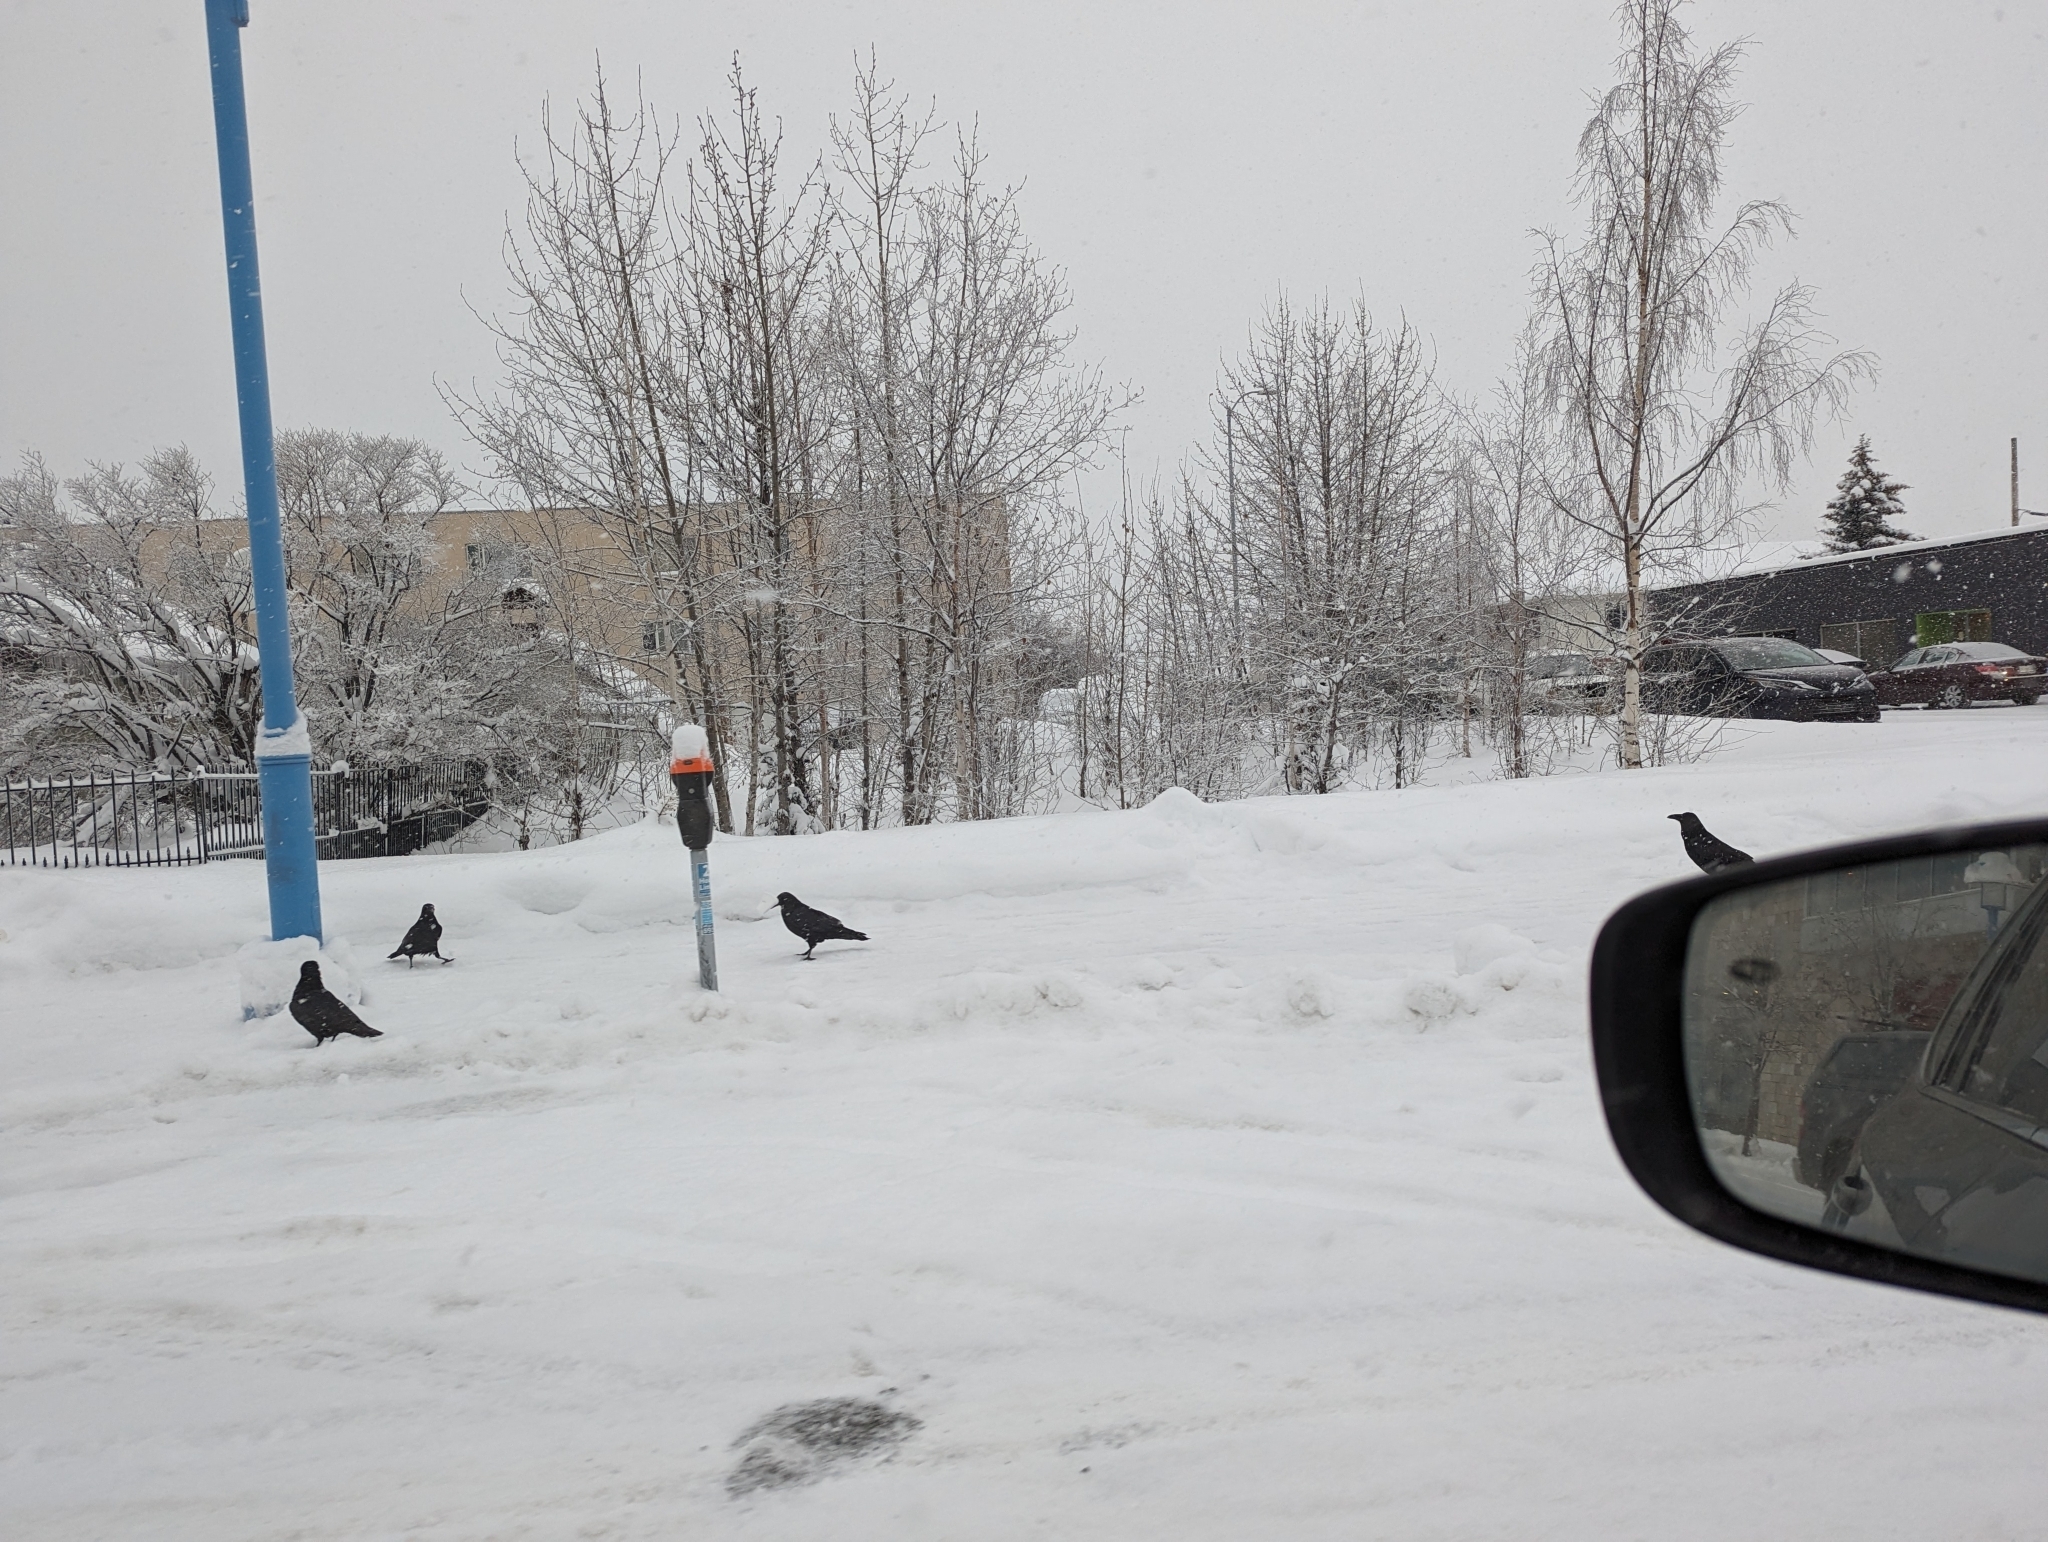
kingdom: Animalia
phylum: Chordata
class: Aves
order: Passeriformes
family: Corvidae
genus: Corvus
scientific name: Corvus corax
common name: Common raven
